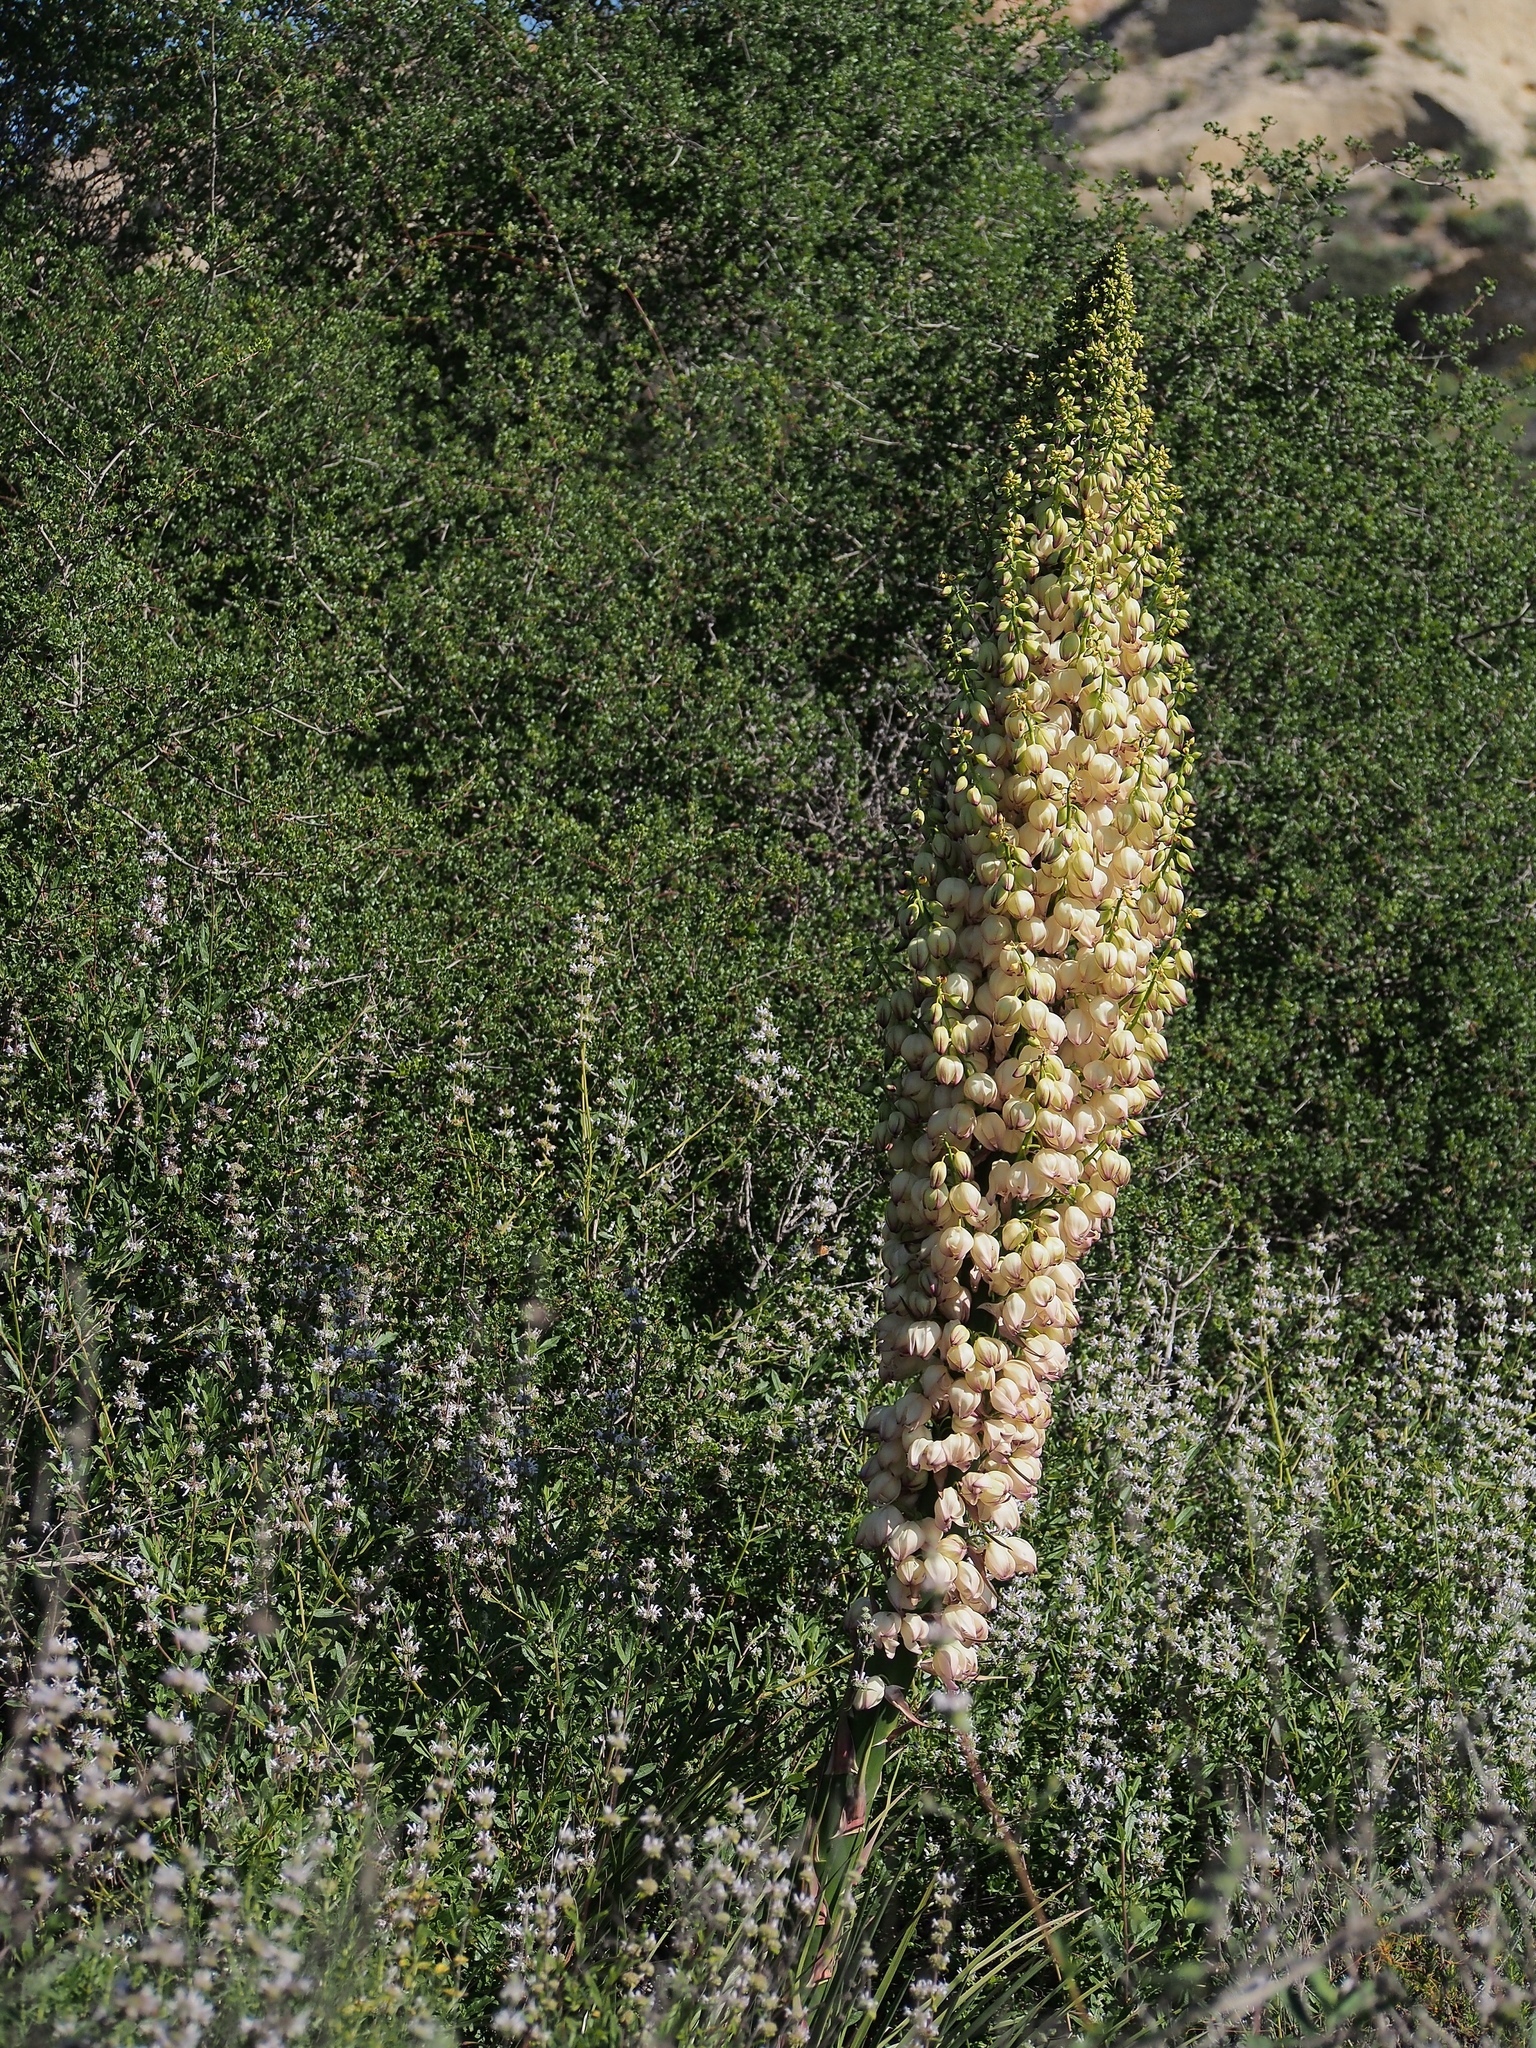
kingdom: Plantae
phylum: Tracheophyta
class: Liliopsida
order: Asparagales
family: Asparagaceae
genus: Hesperoyucca
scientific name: Hesperoyucca whipplei
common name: Our lord's-candle
